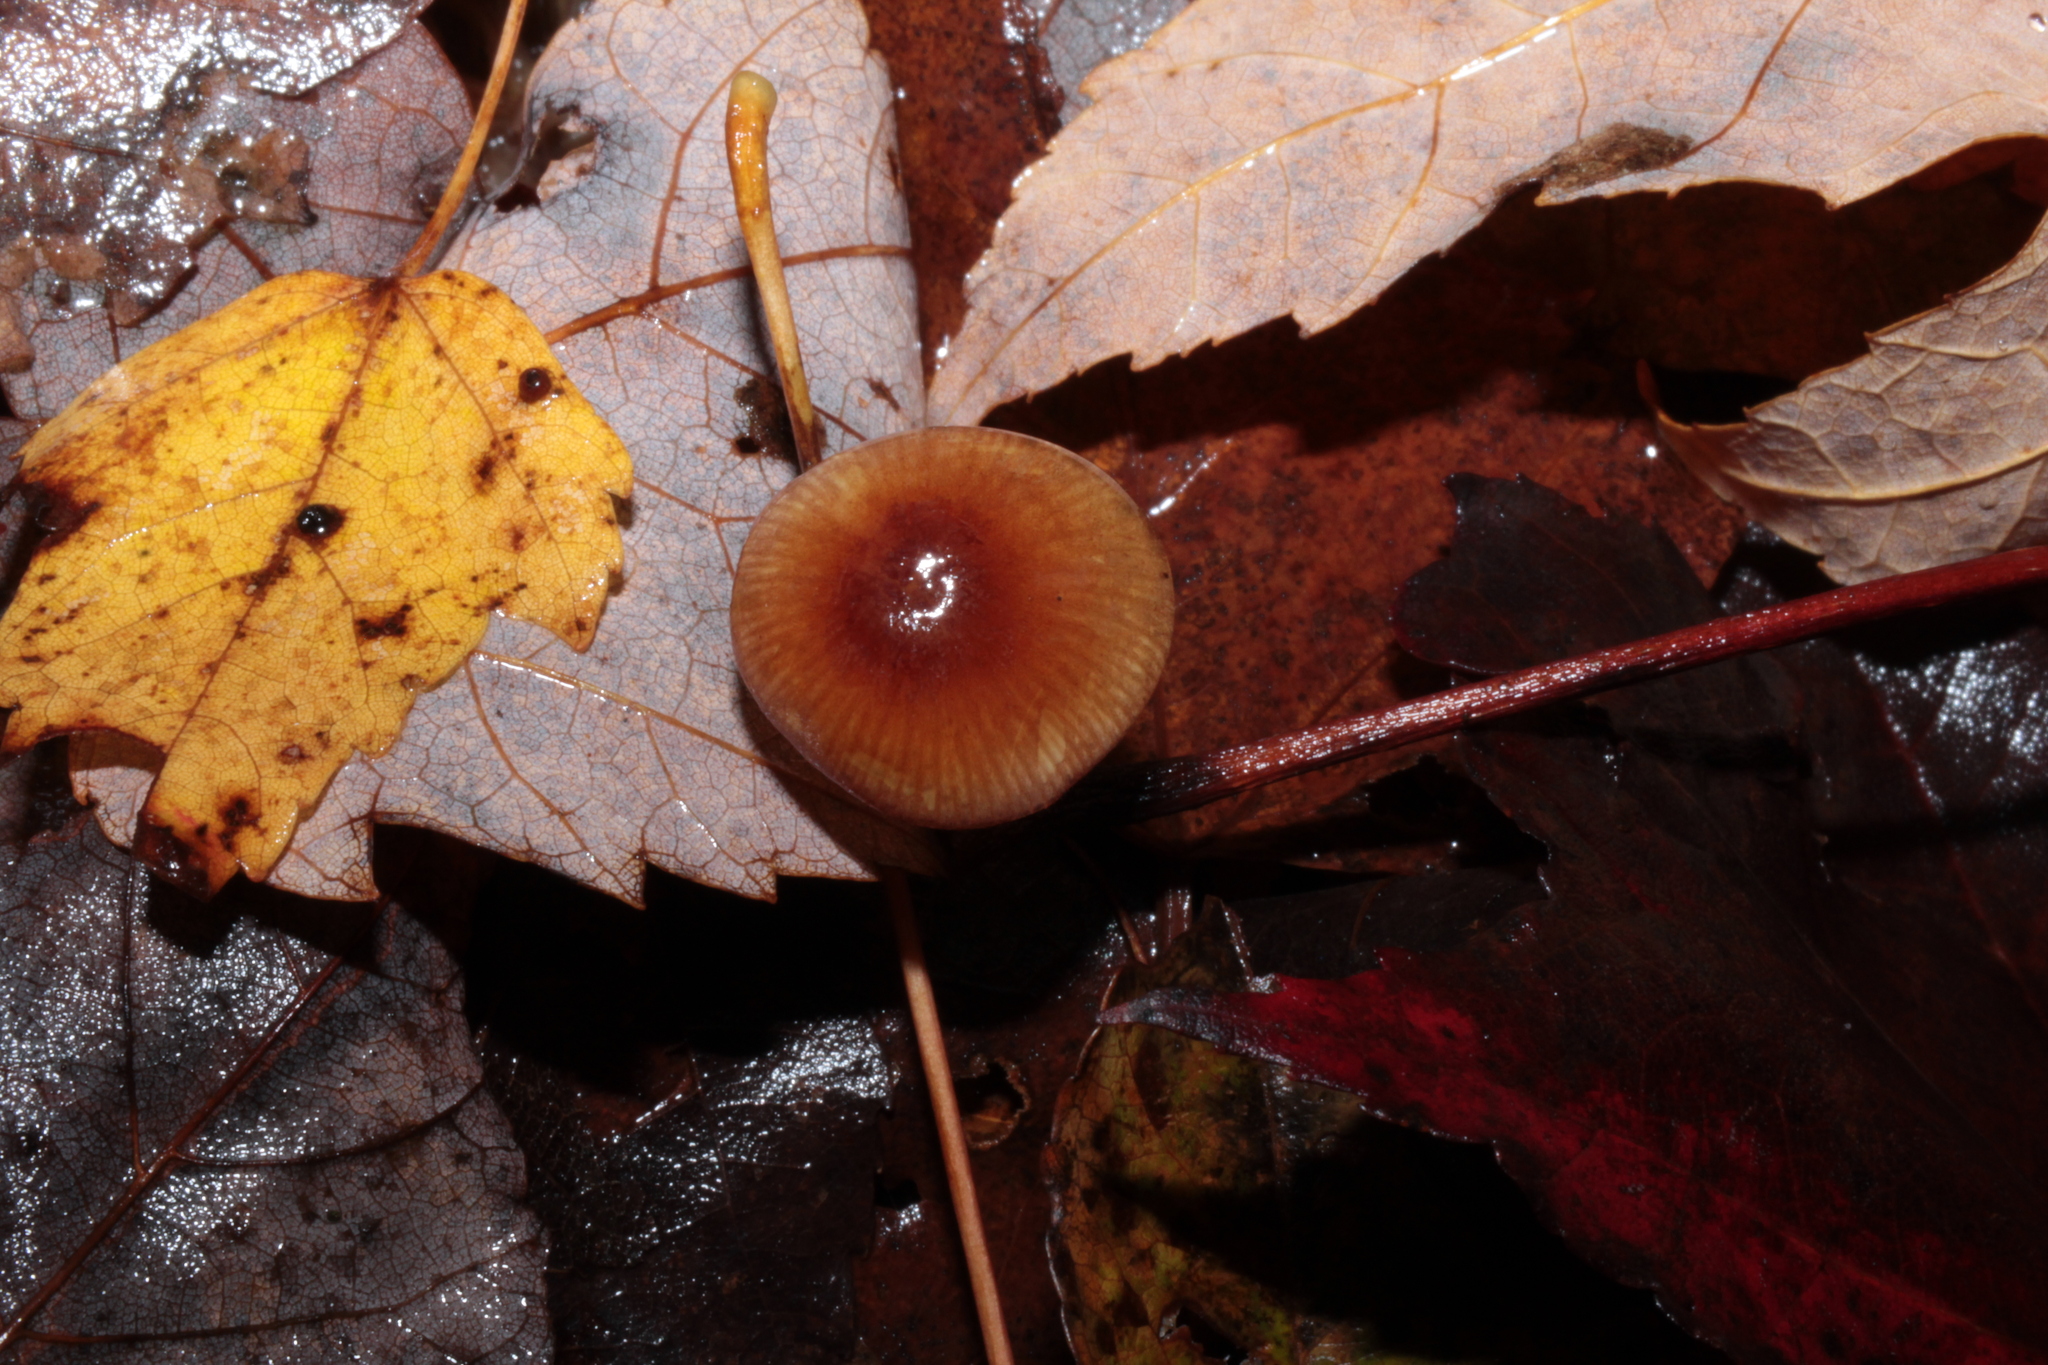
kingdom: Fungi
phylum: Basidiomycota
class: Agaricomycetes
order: Agaricales
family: Mycenaceae
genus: Mycena
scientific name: Mycena atkinsoniana
